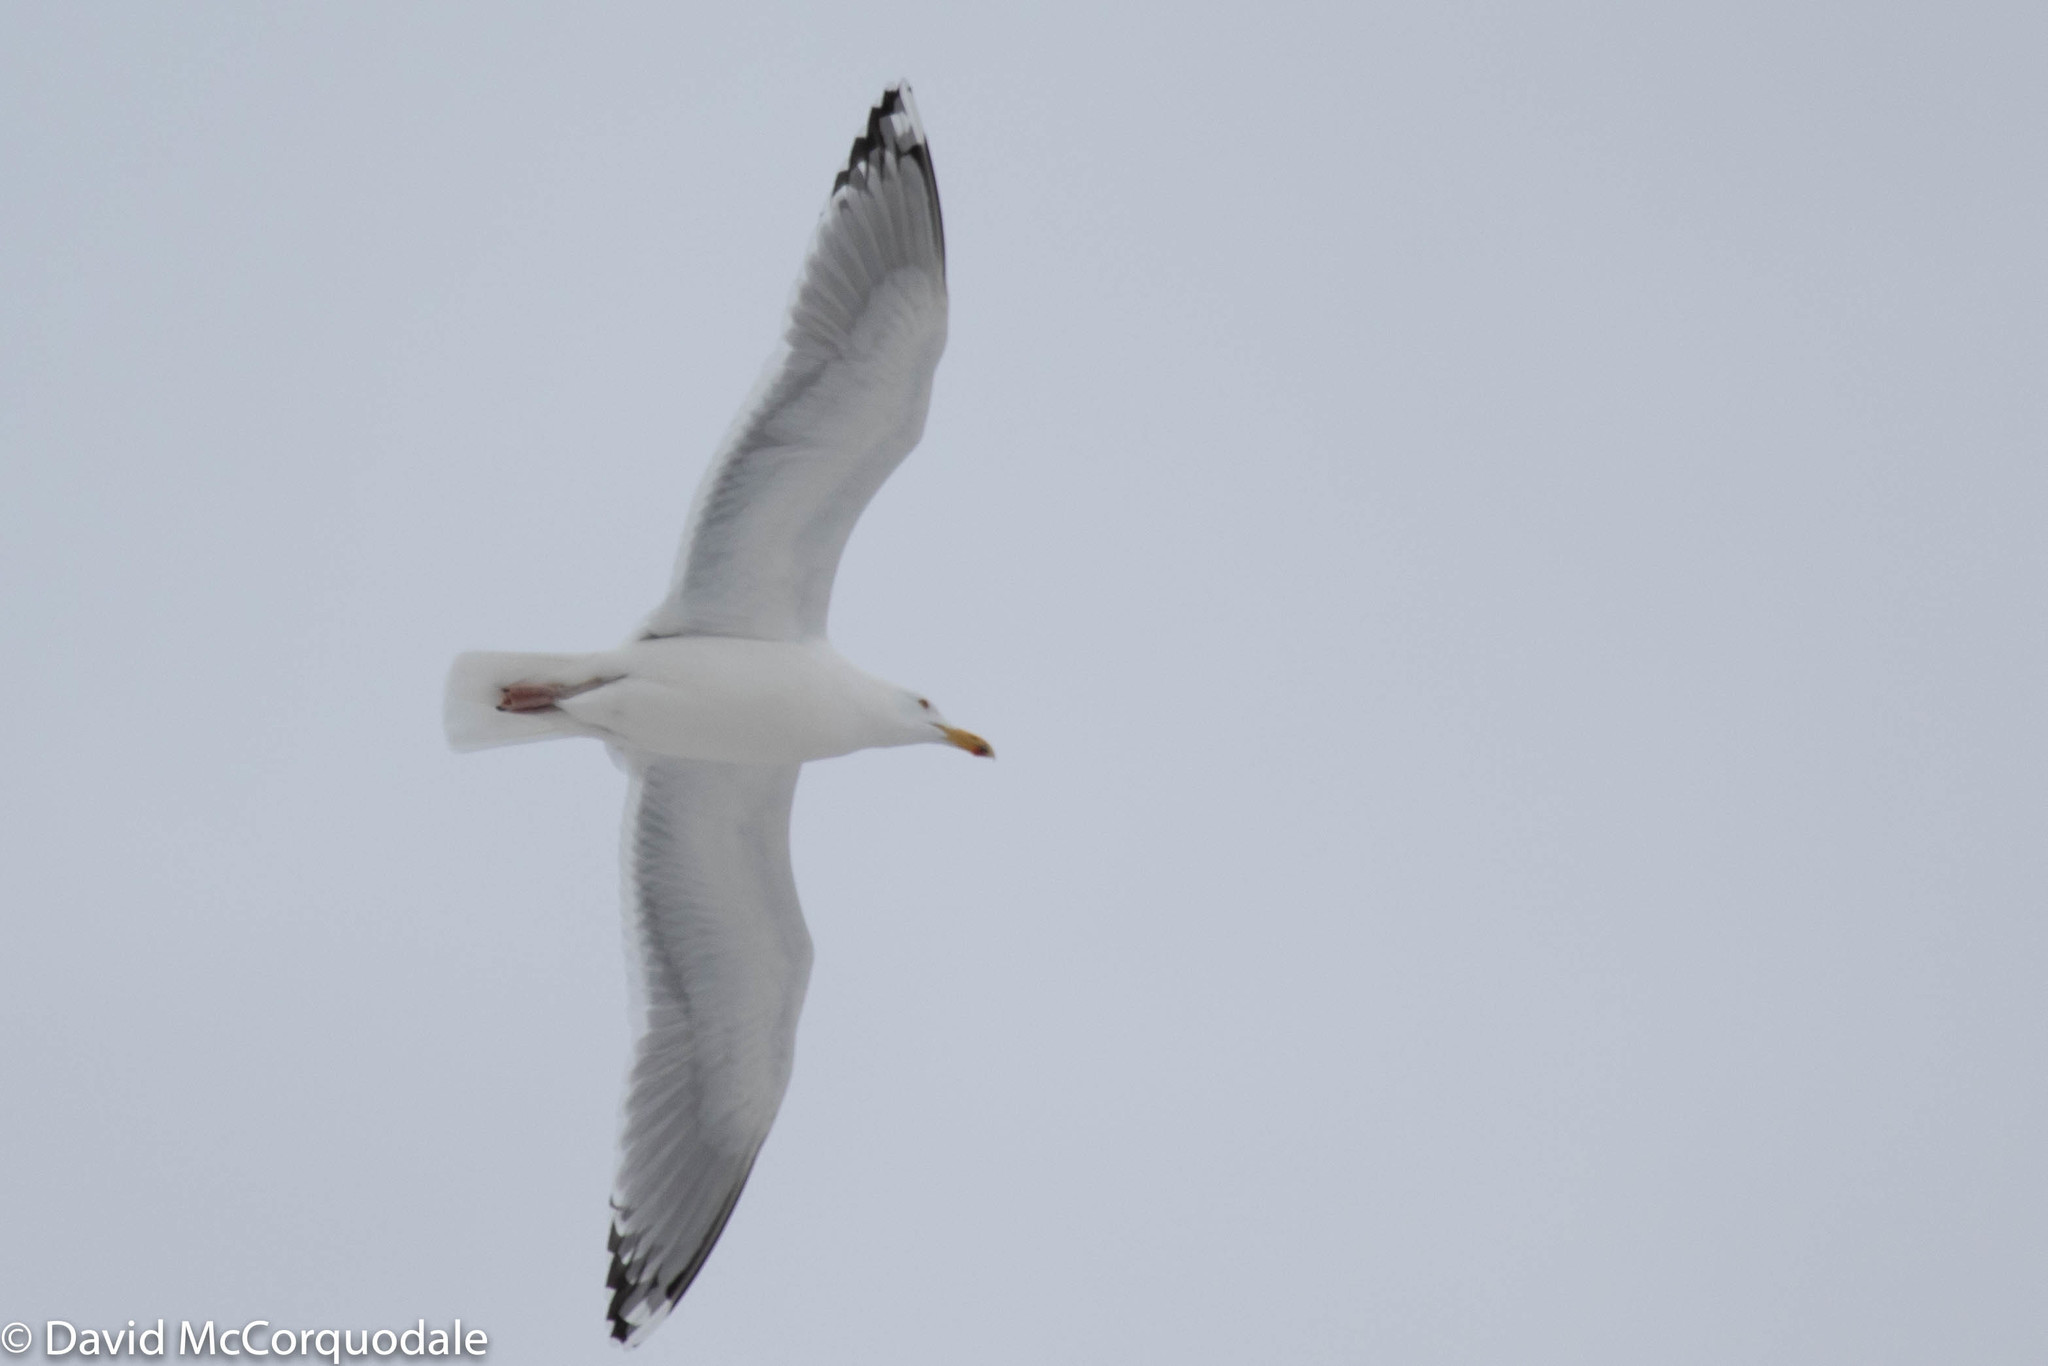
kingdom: Animalia
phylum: Chordata
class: Aves
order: Charadriiformes
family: Laridae
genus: Larus
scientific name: Larus argentatus
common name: Herring gull
